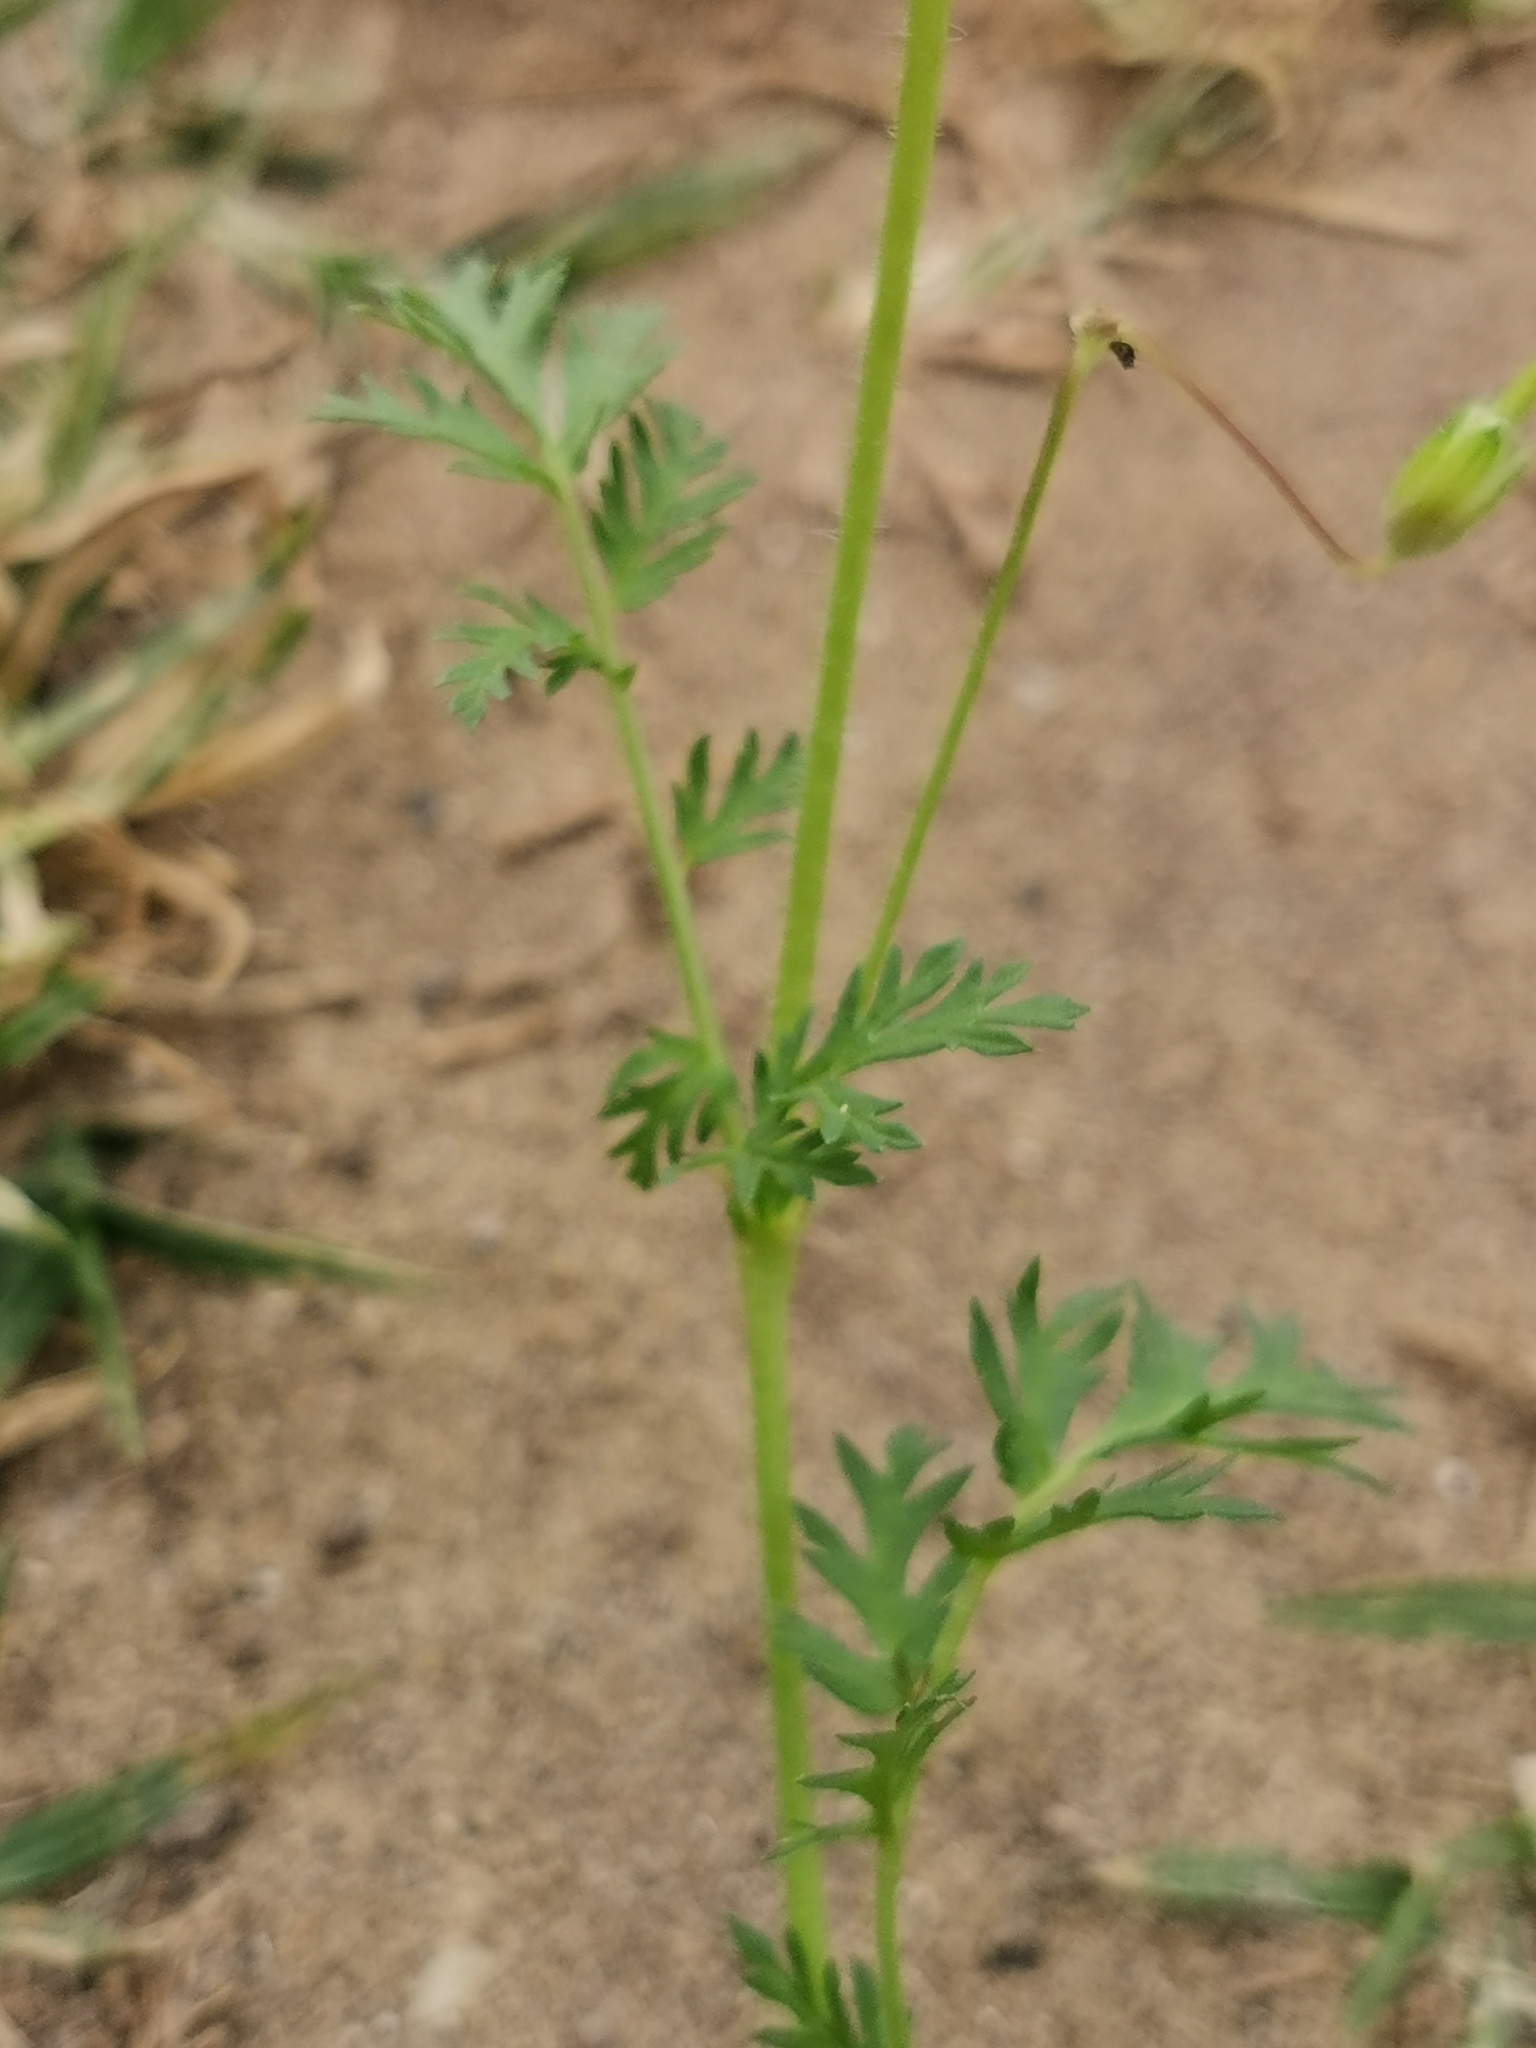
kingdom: Plantae
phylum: Tracheophyta
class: Magnoliopsida
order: Geraniales
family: Geraniaceae
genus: Erodium
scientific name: Erodium cicutarium
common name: Common stork's-bill
